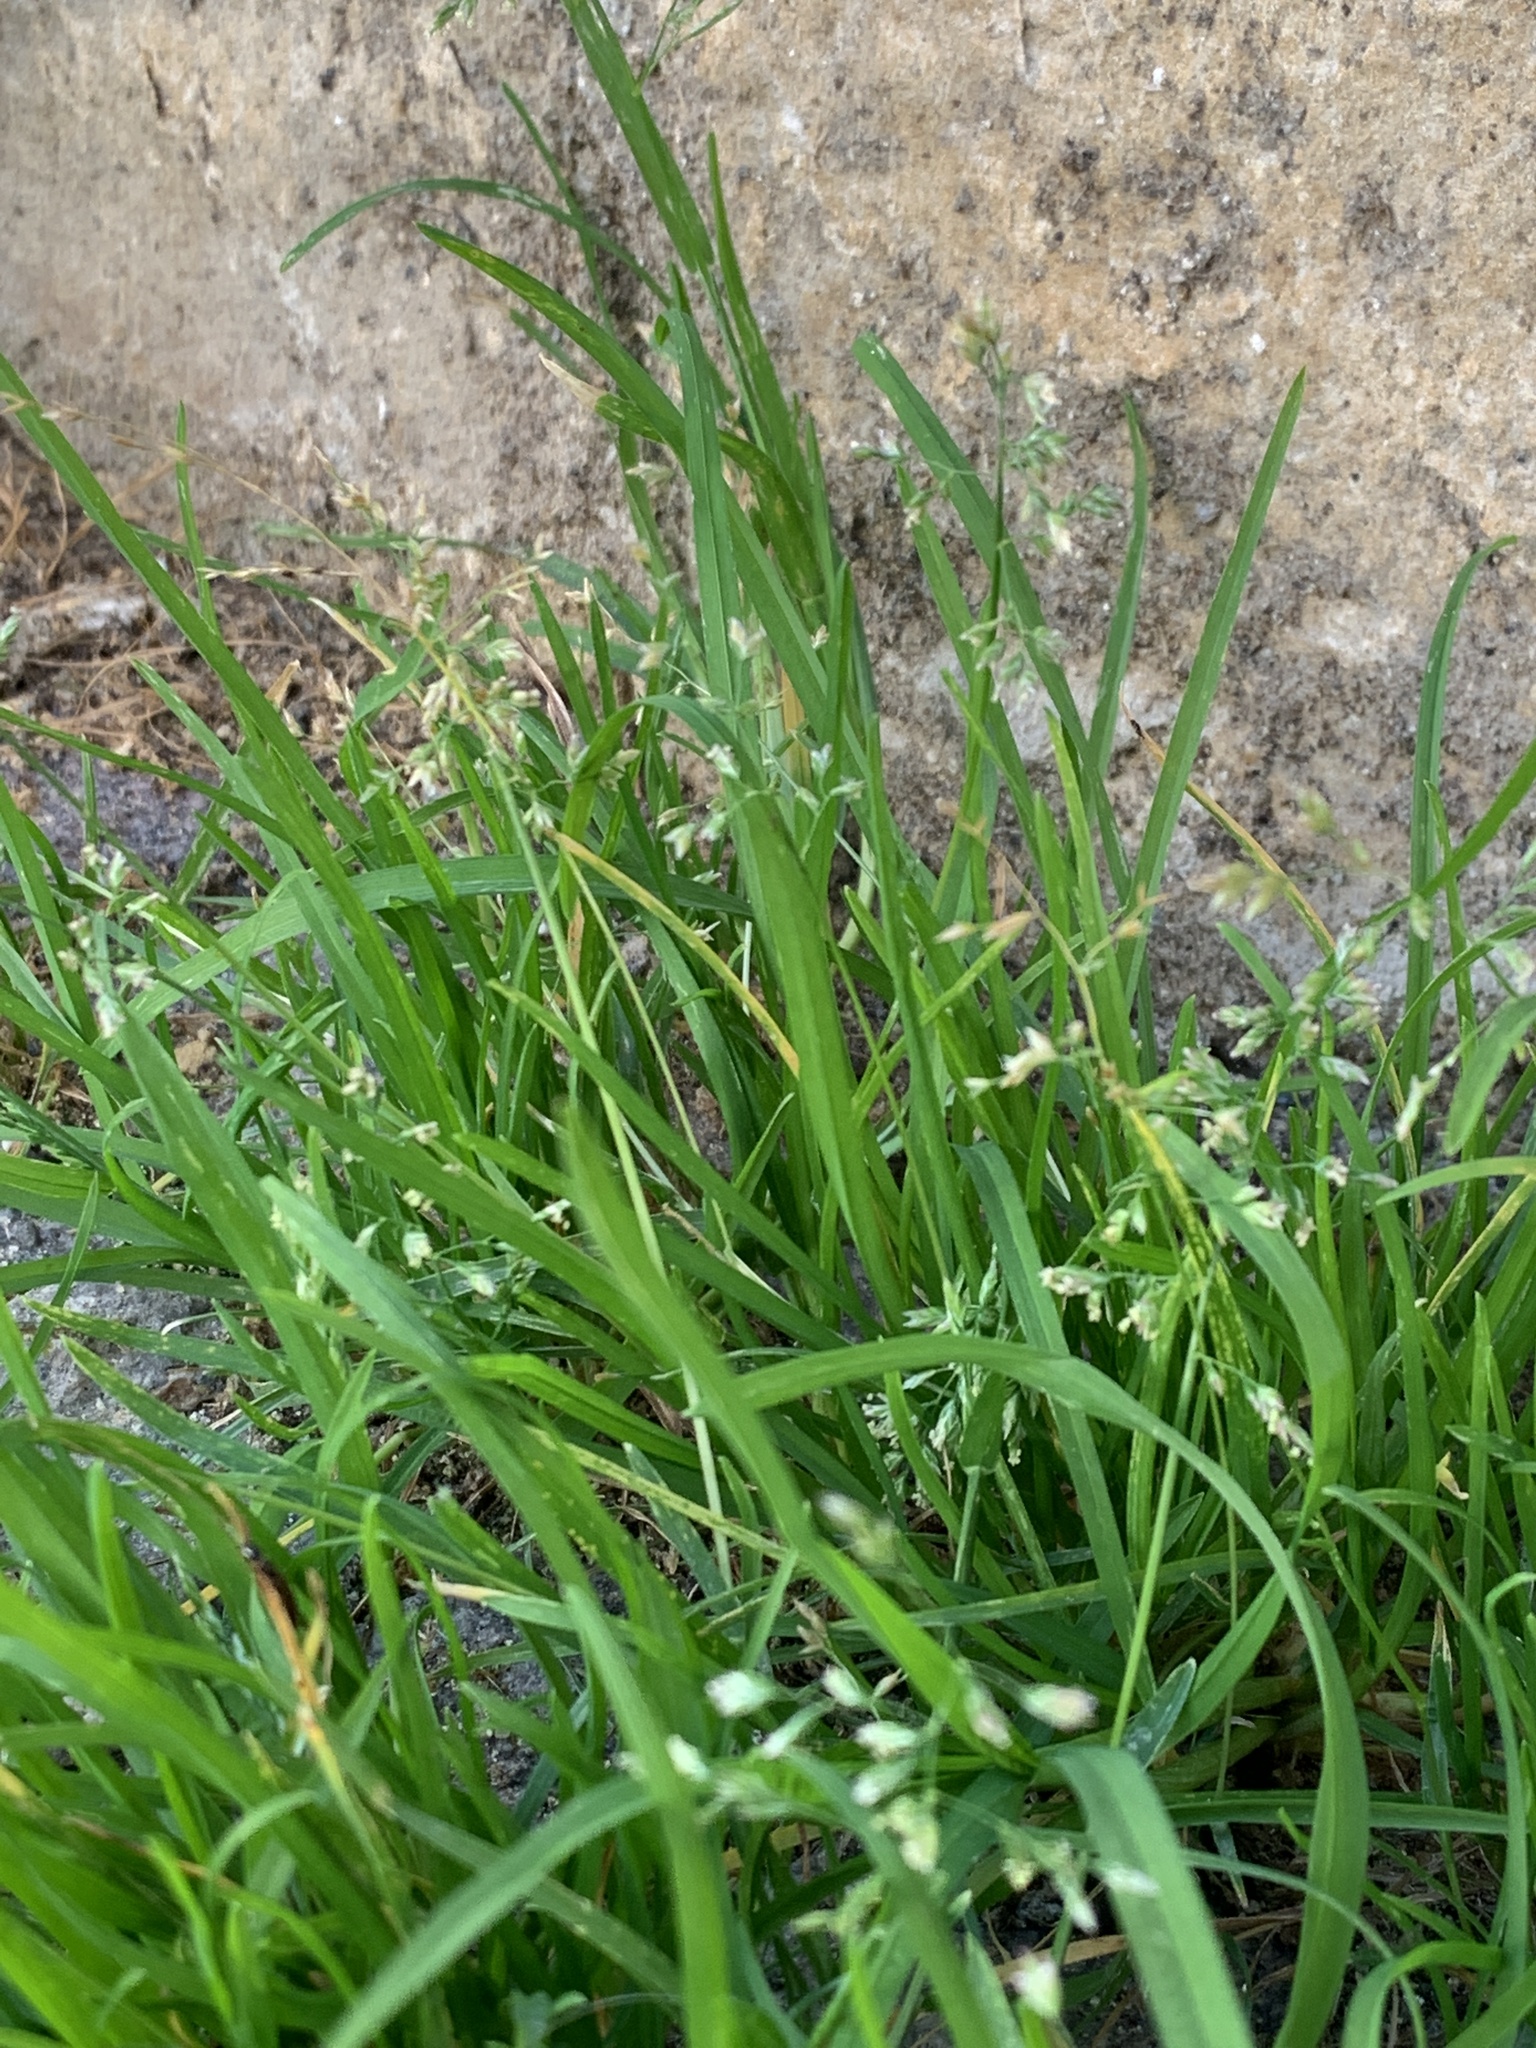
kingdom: Plantae
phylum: Tracheophyta
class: Liliopsida
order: Poales
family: Poaceae
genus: Poa
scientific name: Poa annua
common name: Annual bluegrass
